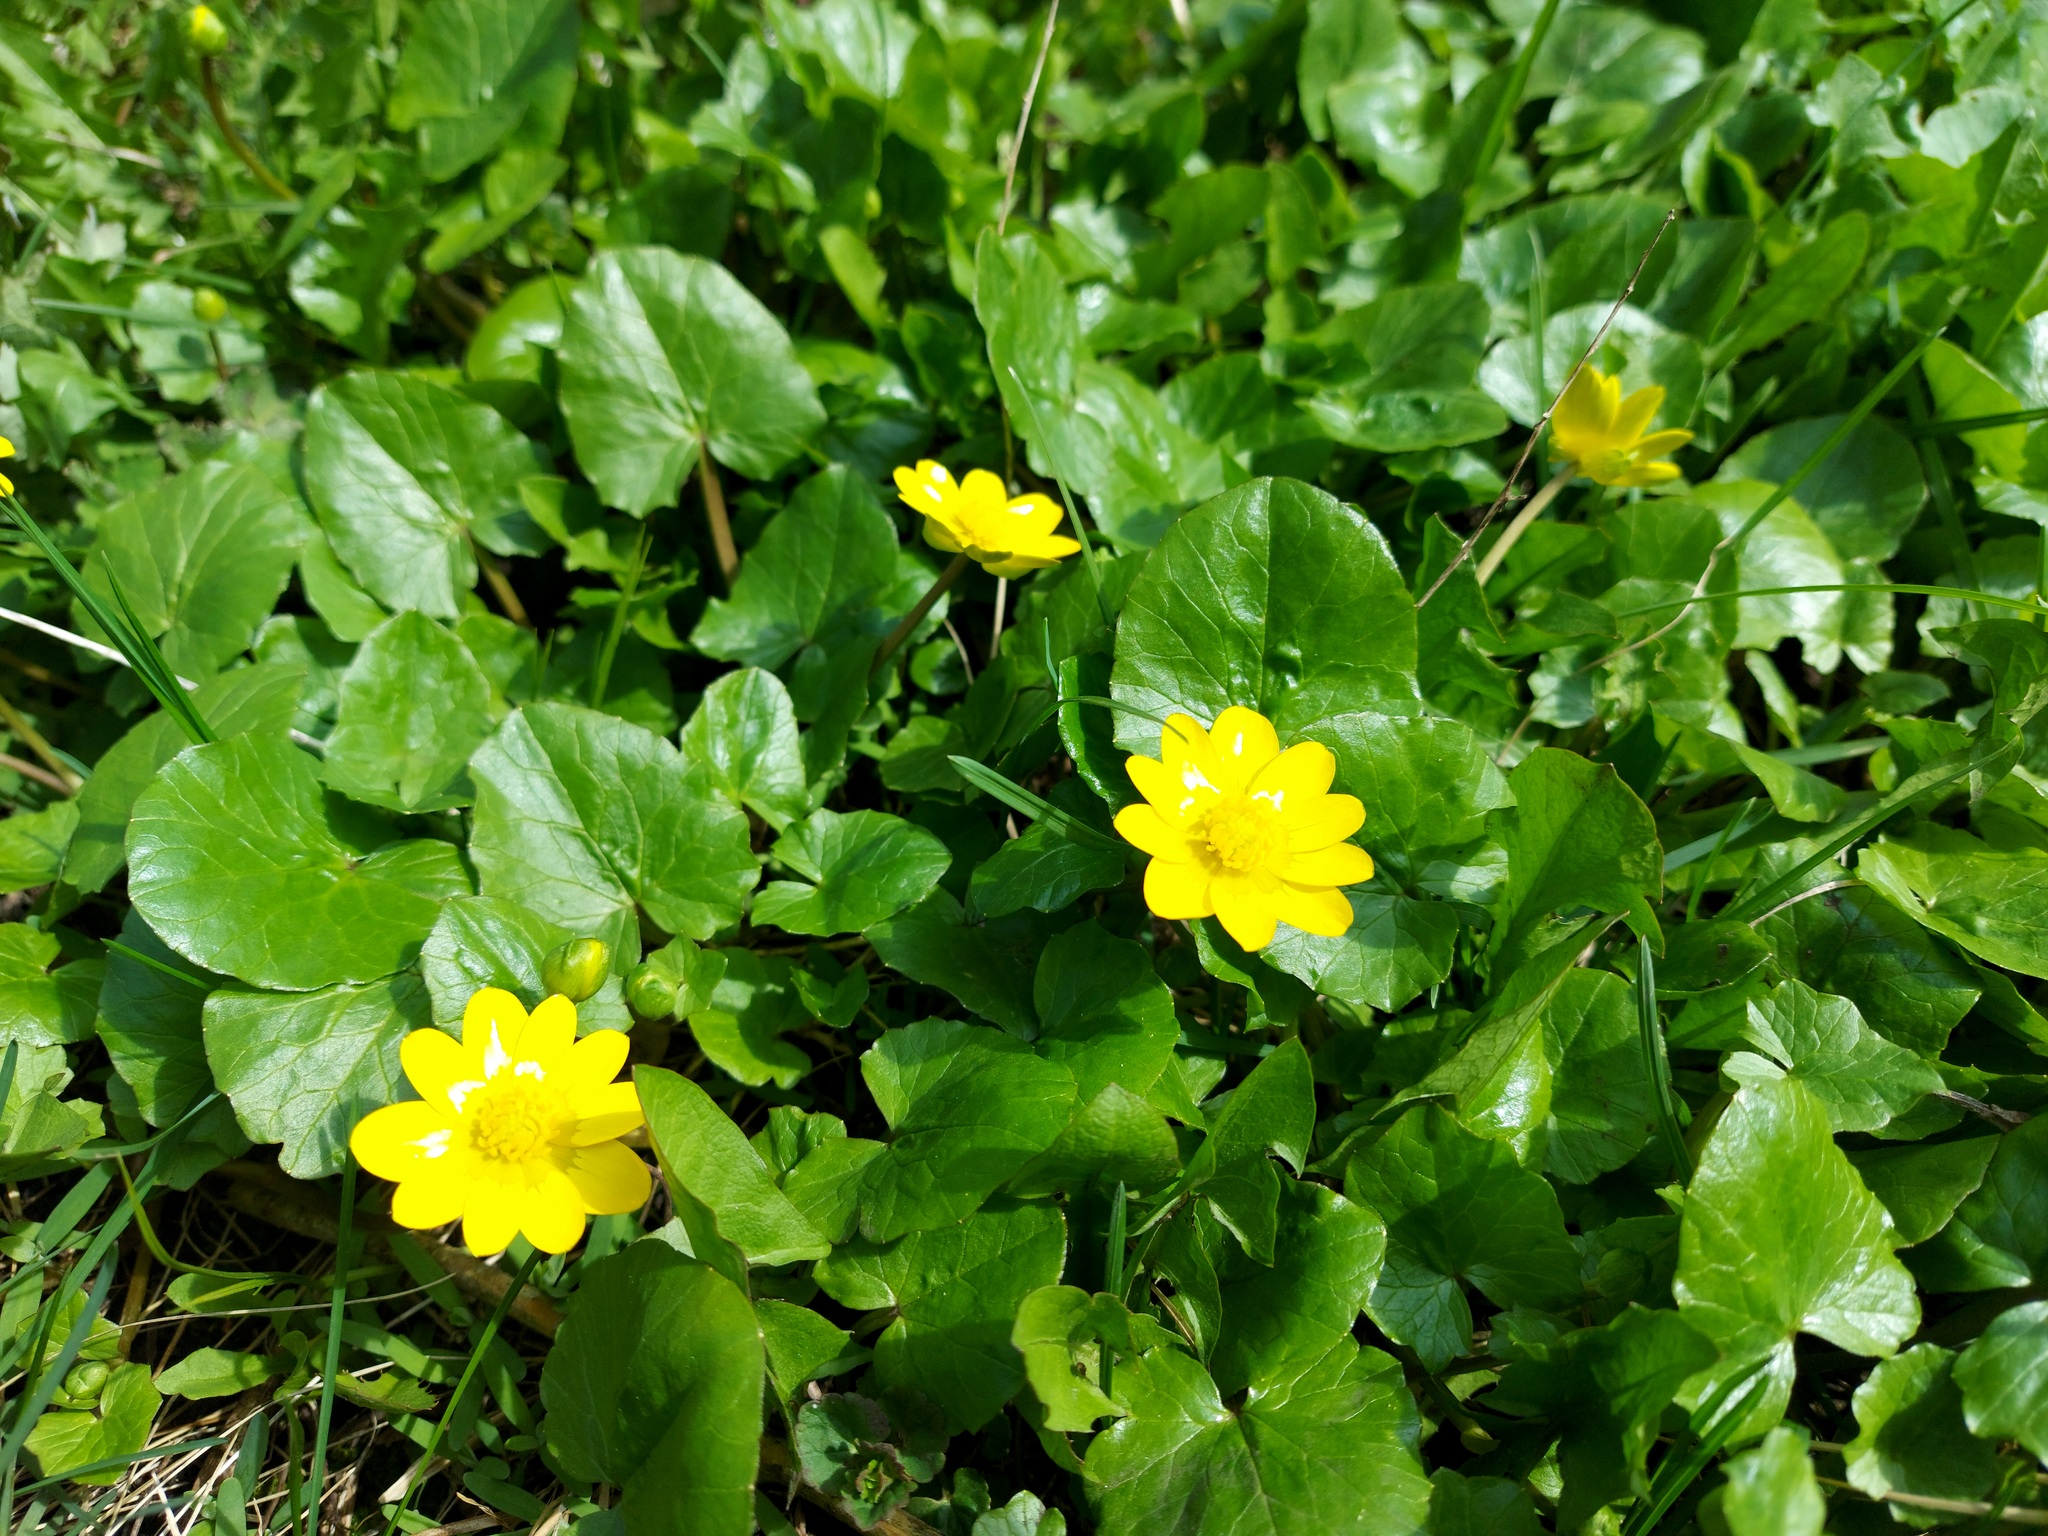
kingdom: Plantae
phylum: Tracheophyta
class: Magnoliopsida
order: Ranunculales
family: Ranunculaceae
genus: Ficaria
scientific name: Ficaria verna
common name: Lesser celandine
